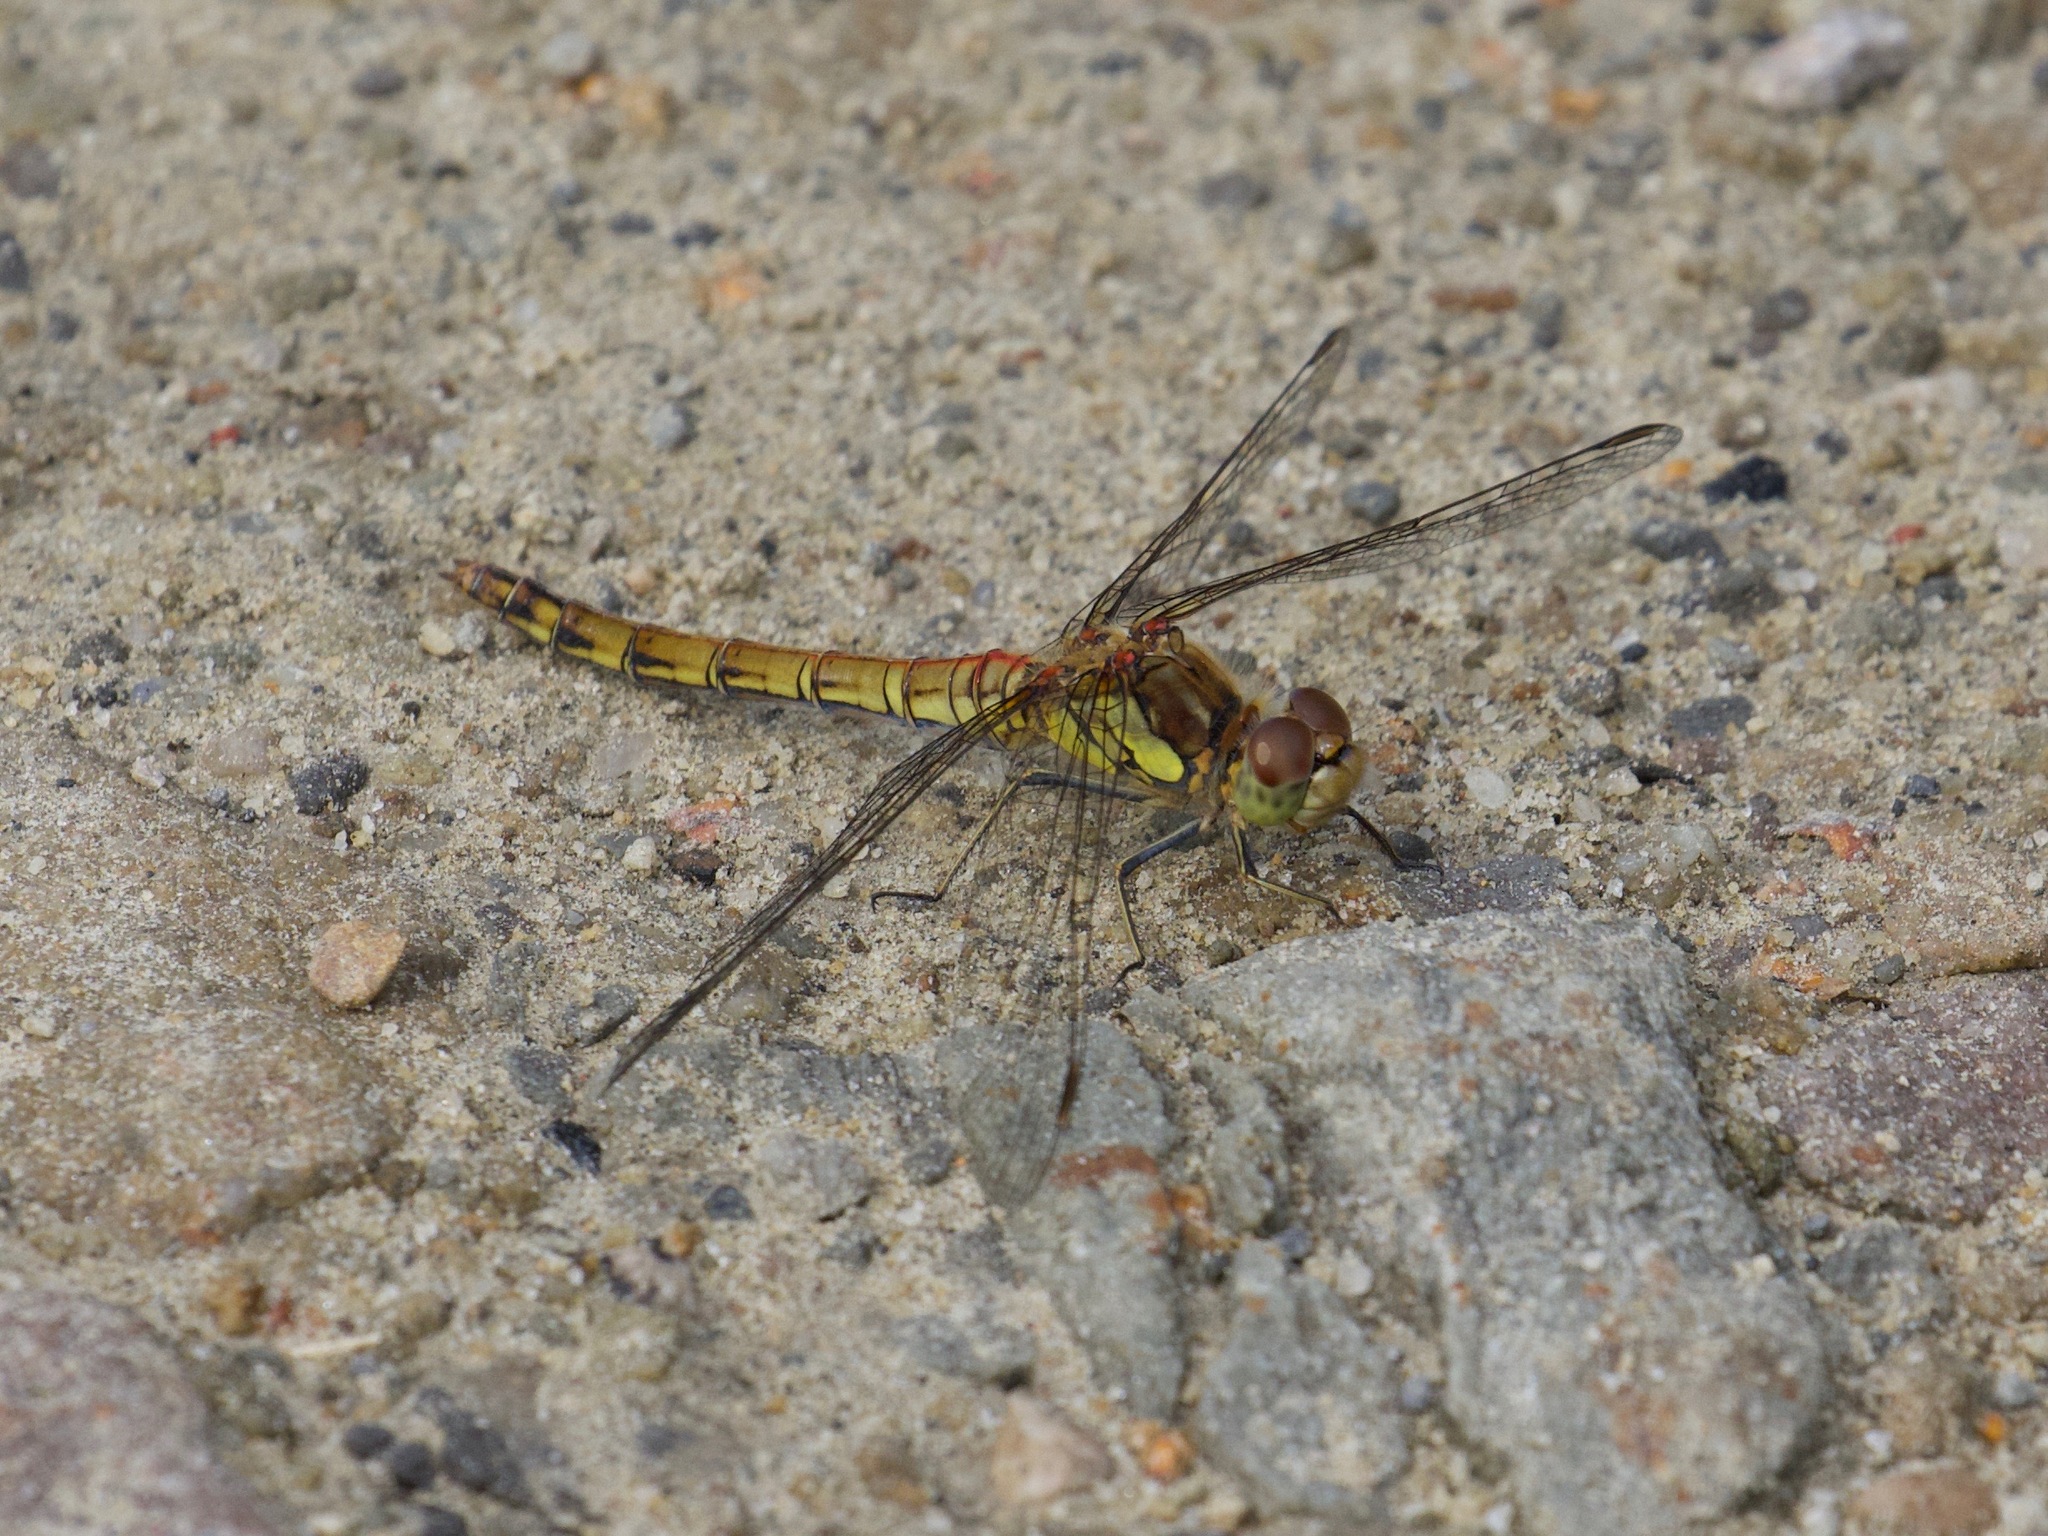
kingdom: Animalia
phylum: Arthropoda
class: Insecta
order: Odonata
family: Libellulidae
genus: Sympetrum
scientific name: Sympetrum striolatum
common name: Common darter
